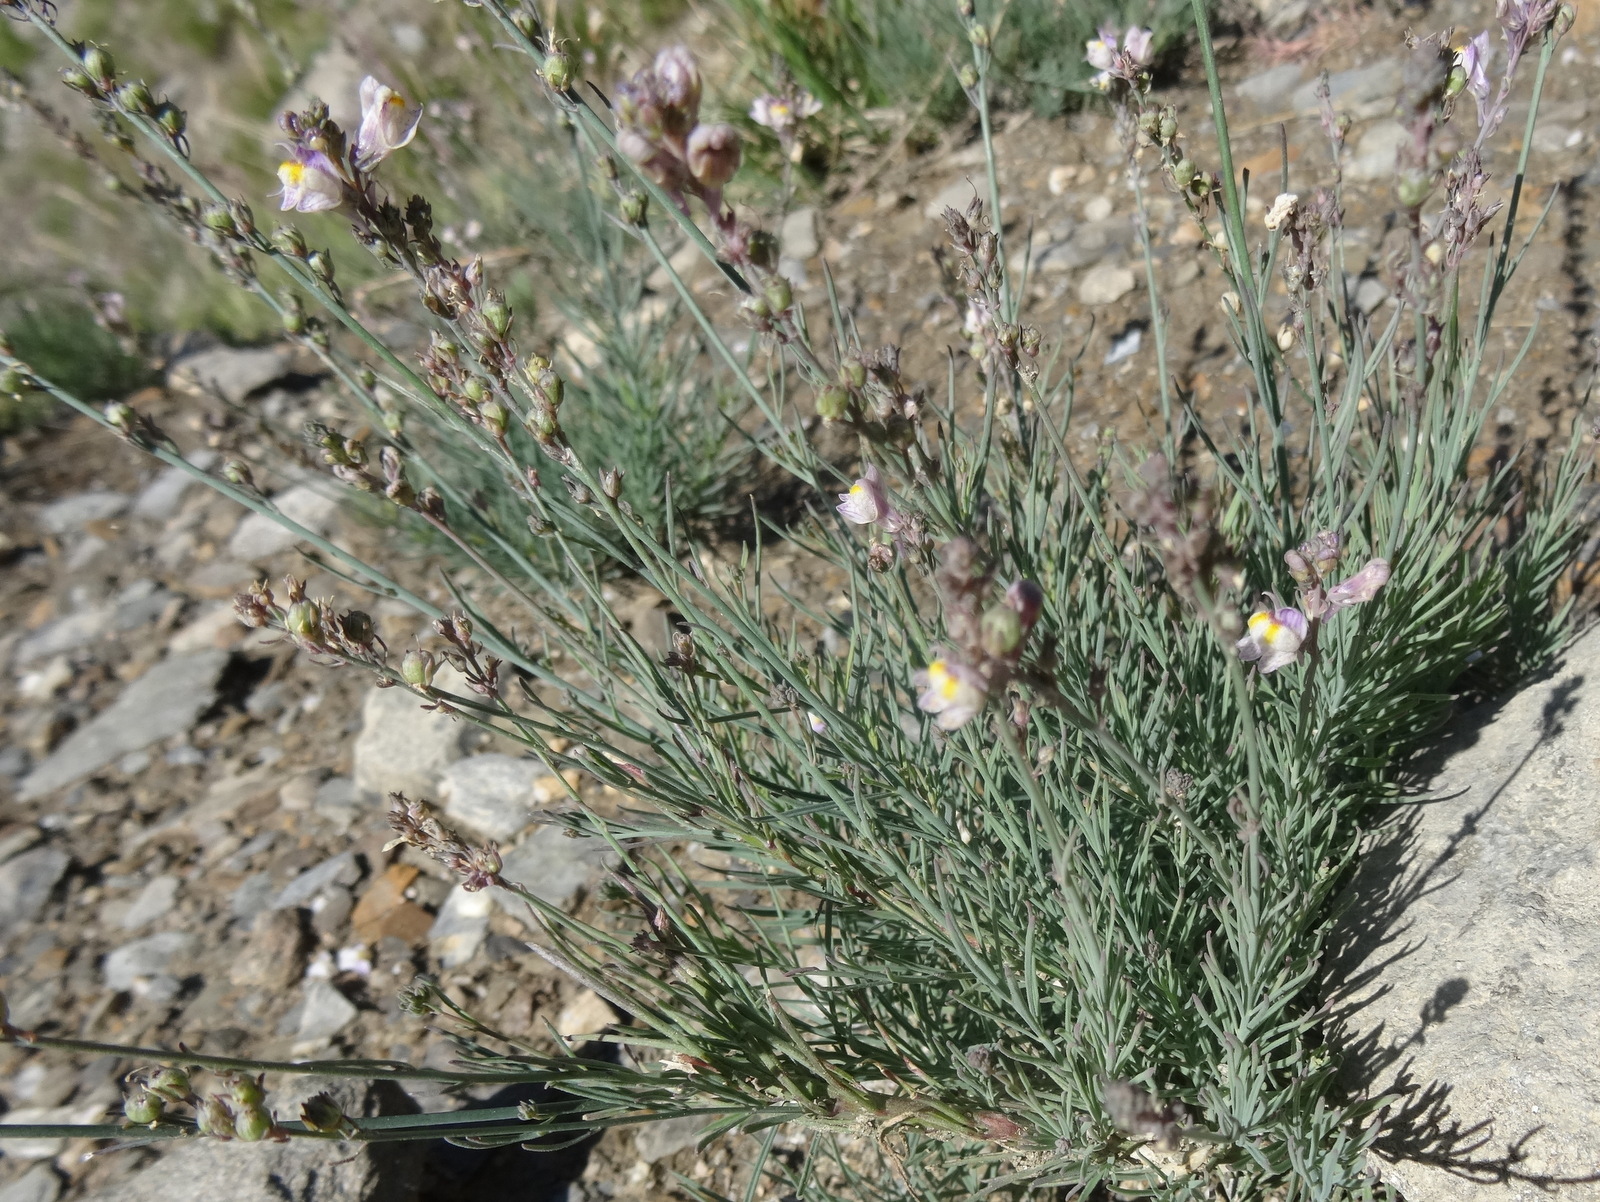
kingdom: Plantae
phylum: Tracheophyta
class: Magnoliopsida
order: Lamiales
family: Plantaginaceae
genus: Linaria
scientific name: Linaria repens
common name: Pale toadflax
